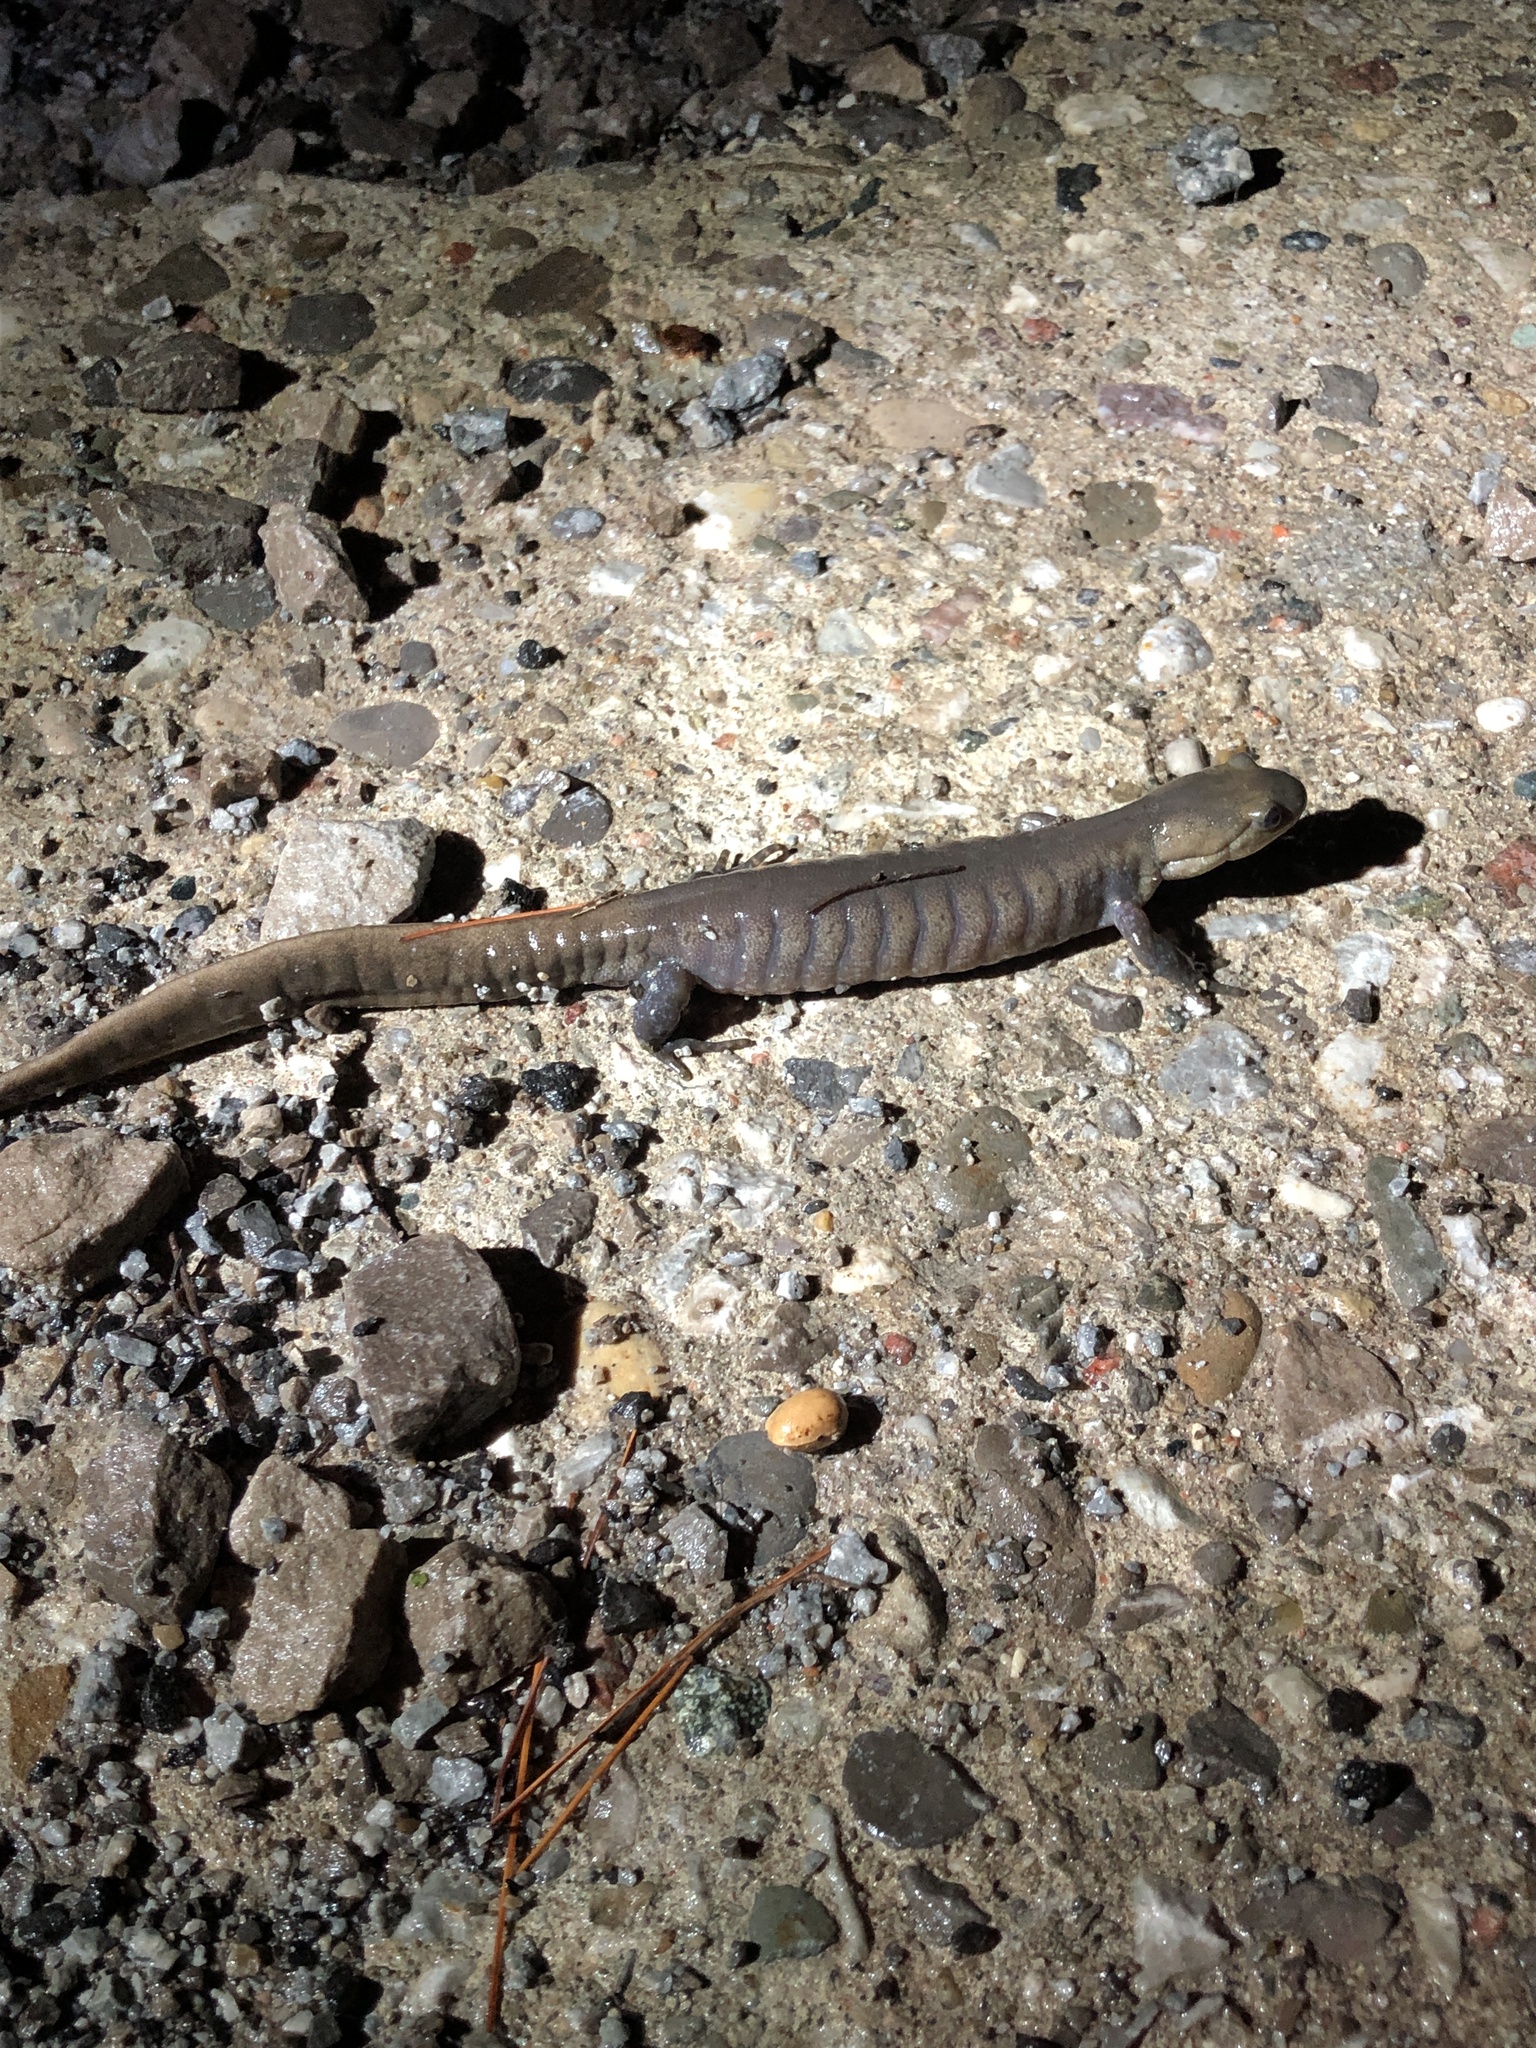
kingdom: Animalia
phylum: Chordata
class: Amphibia
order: Caudata
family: Ambystomatidae
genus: Ambystoma
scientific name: Ambystoma jeffersonianum
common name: Jefferson salamander
